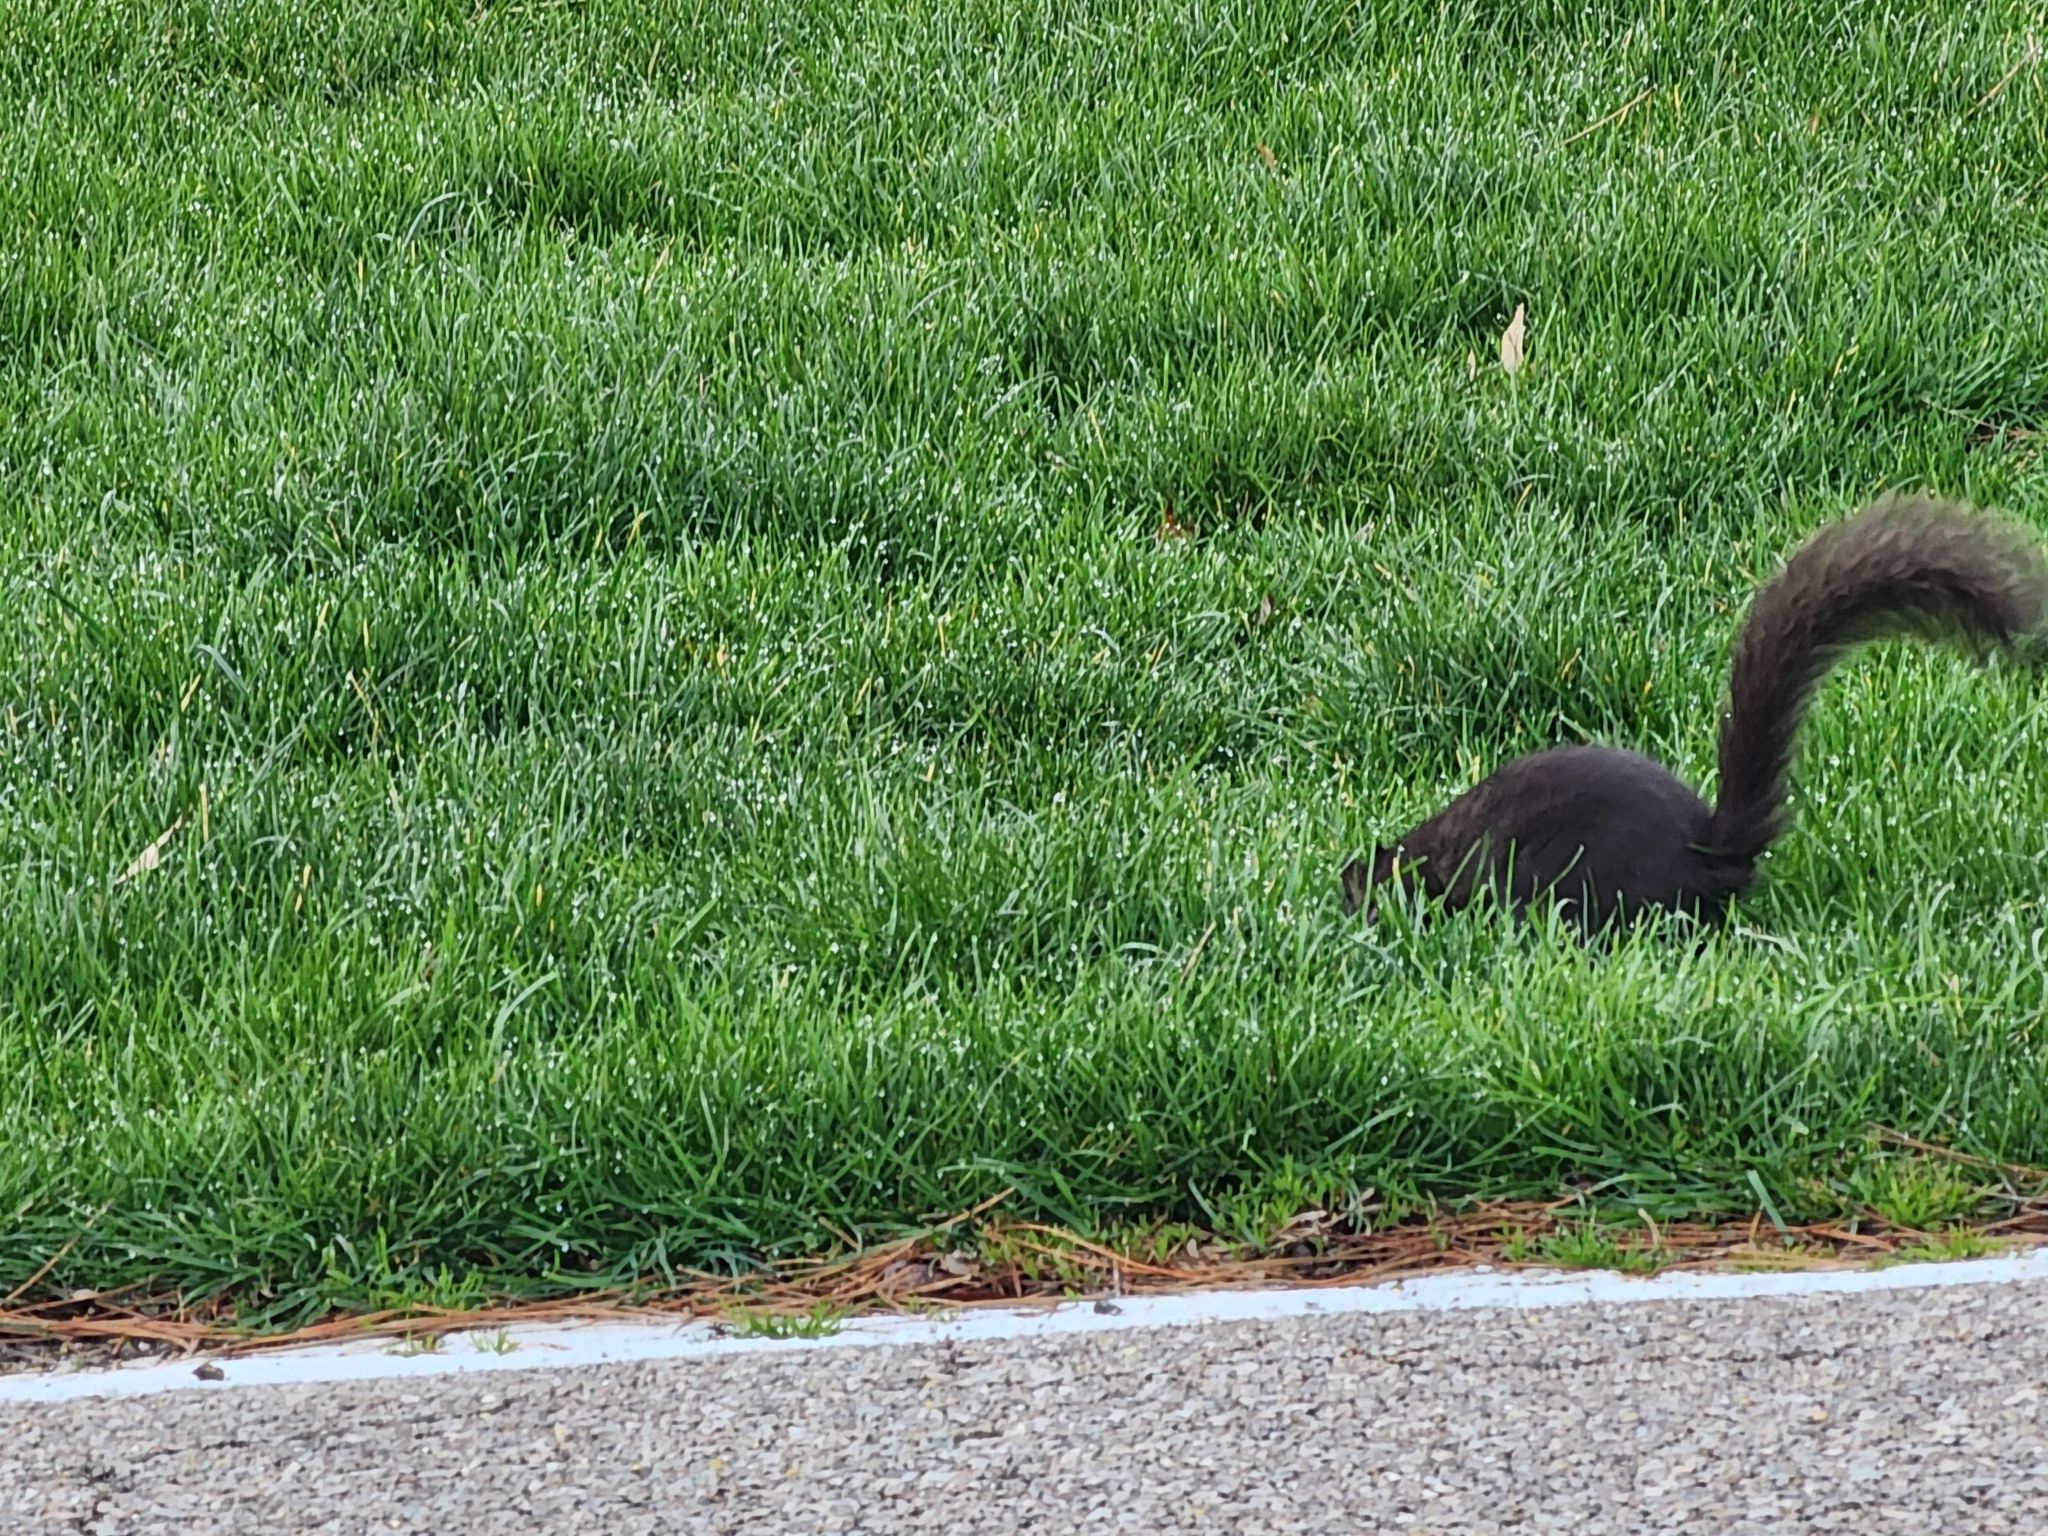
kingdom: Animalia
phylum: Chordata
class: Mammalia
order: Rodentia
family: Sciuridae
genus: Sciurus
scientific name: Sciurus carolinensis
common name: Eastern gray squirrel
